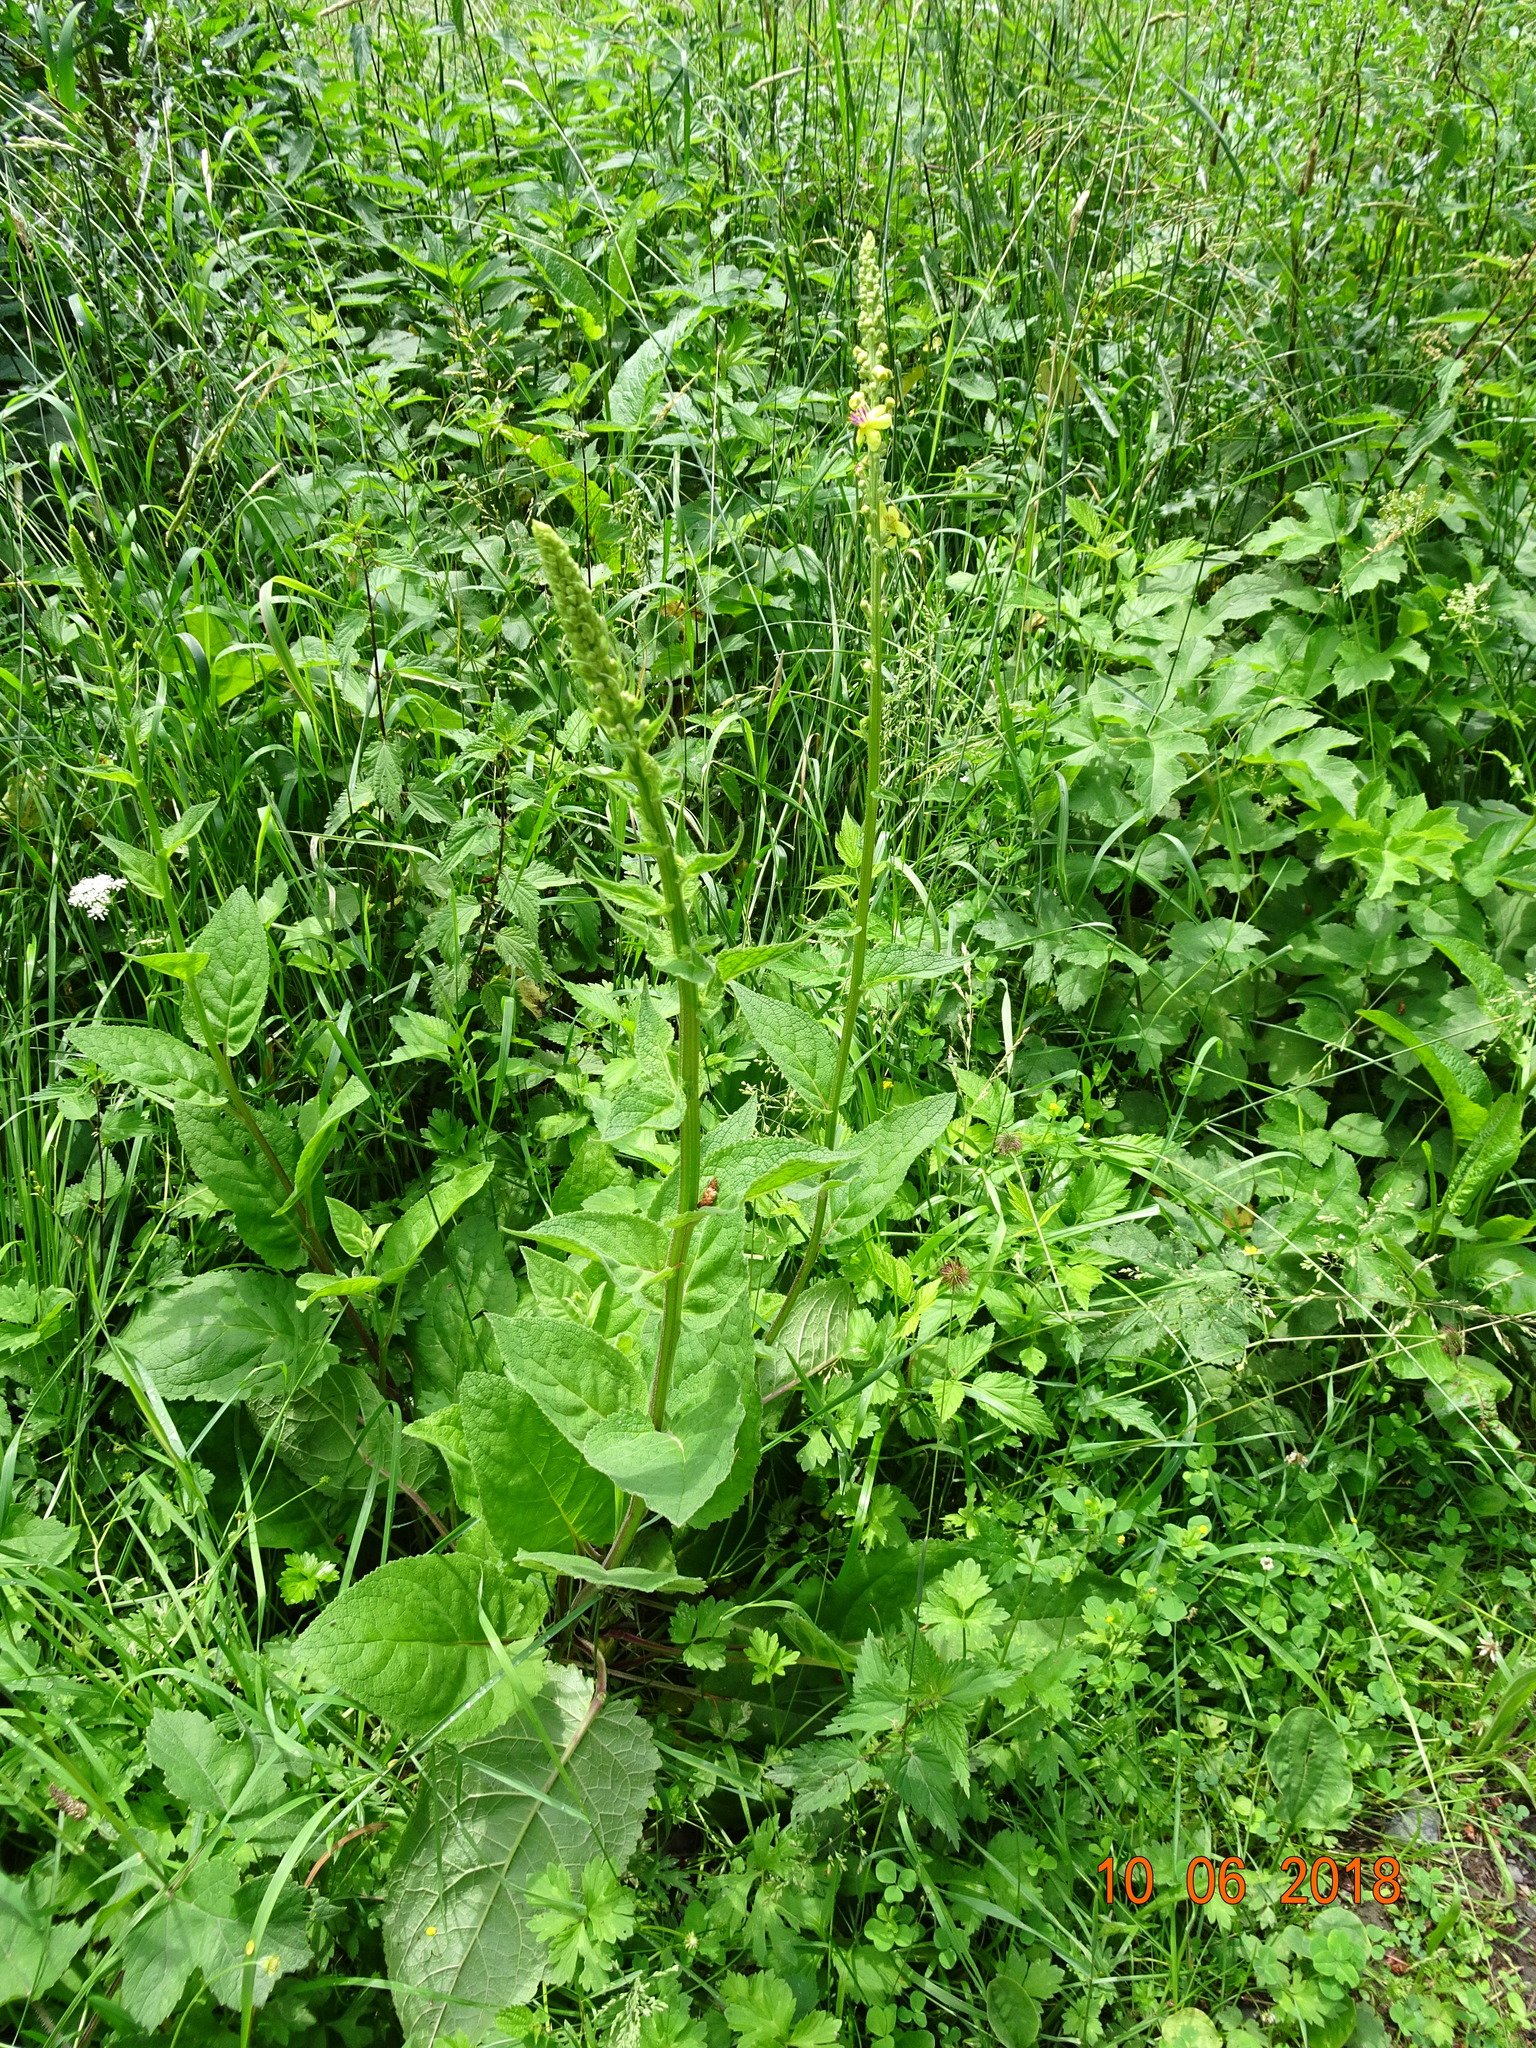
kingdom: Plantae
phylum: Tracheophyta
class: Magnoliopsida
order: Lamiales
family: Scrophulariaceae
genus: Verbascum
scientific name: Verbascum nigrum
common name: Dark mullein
